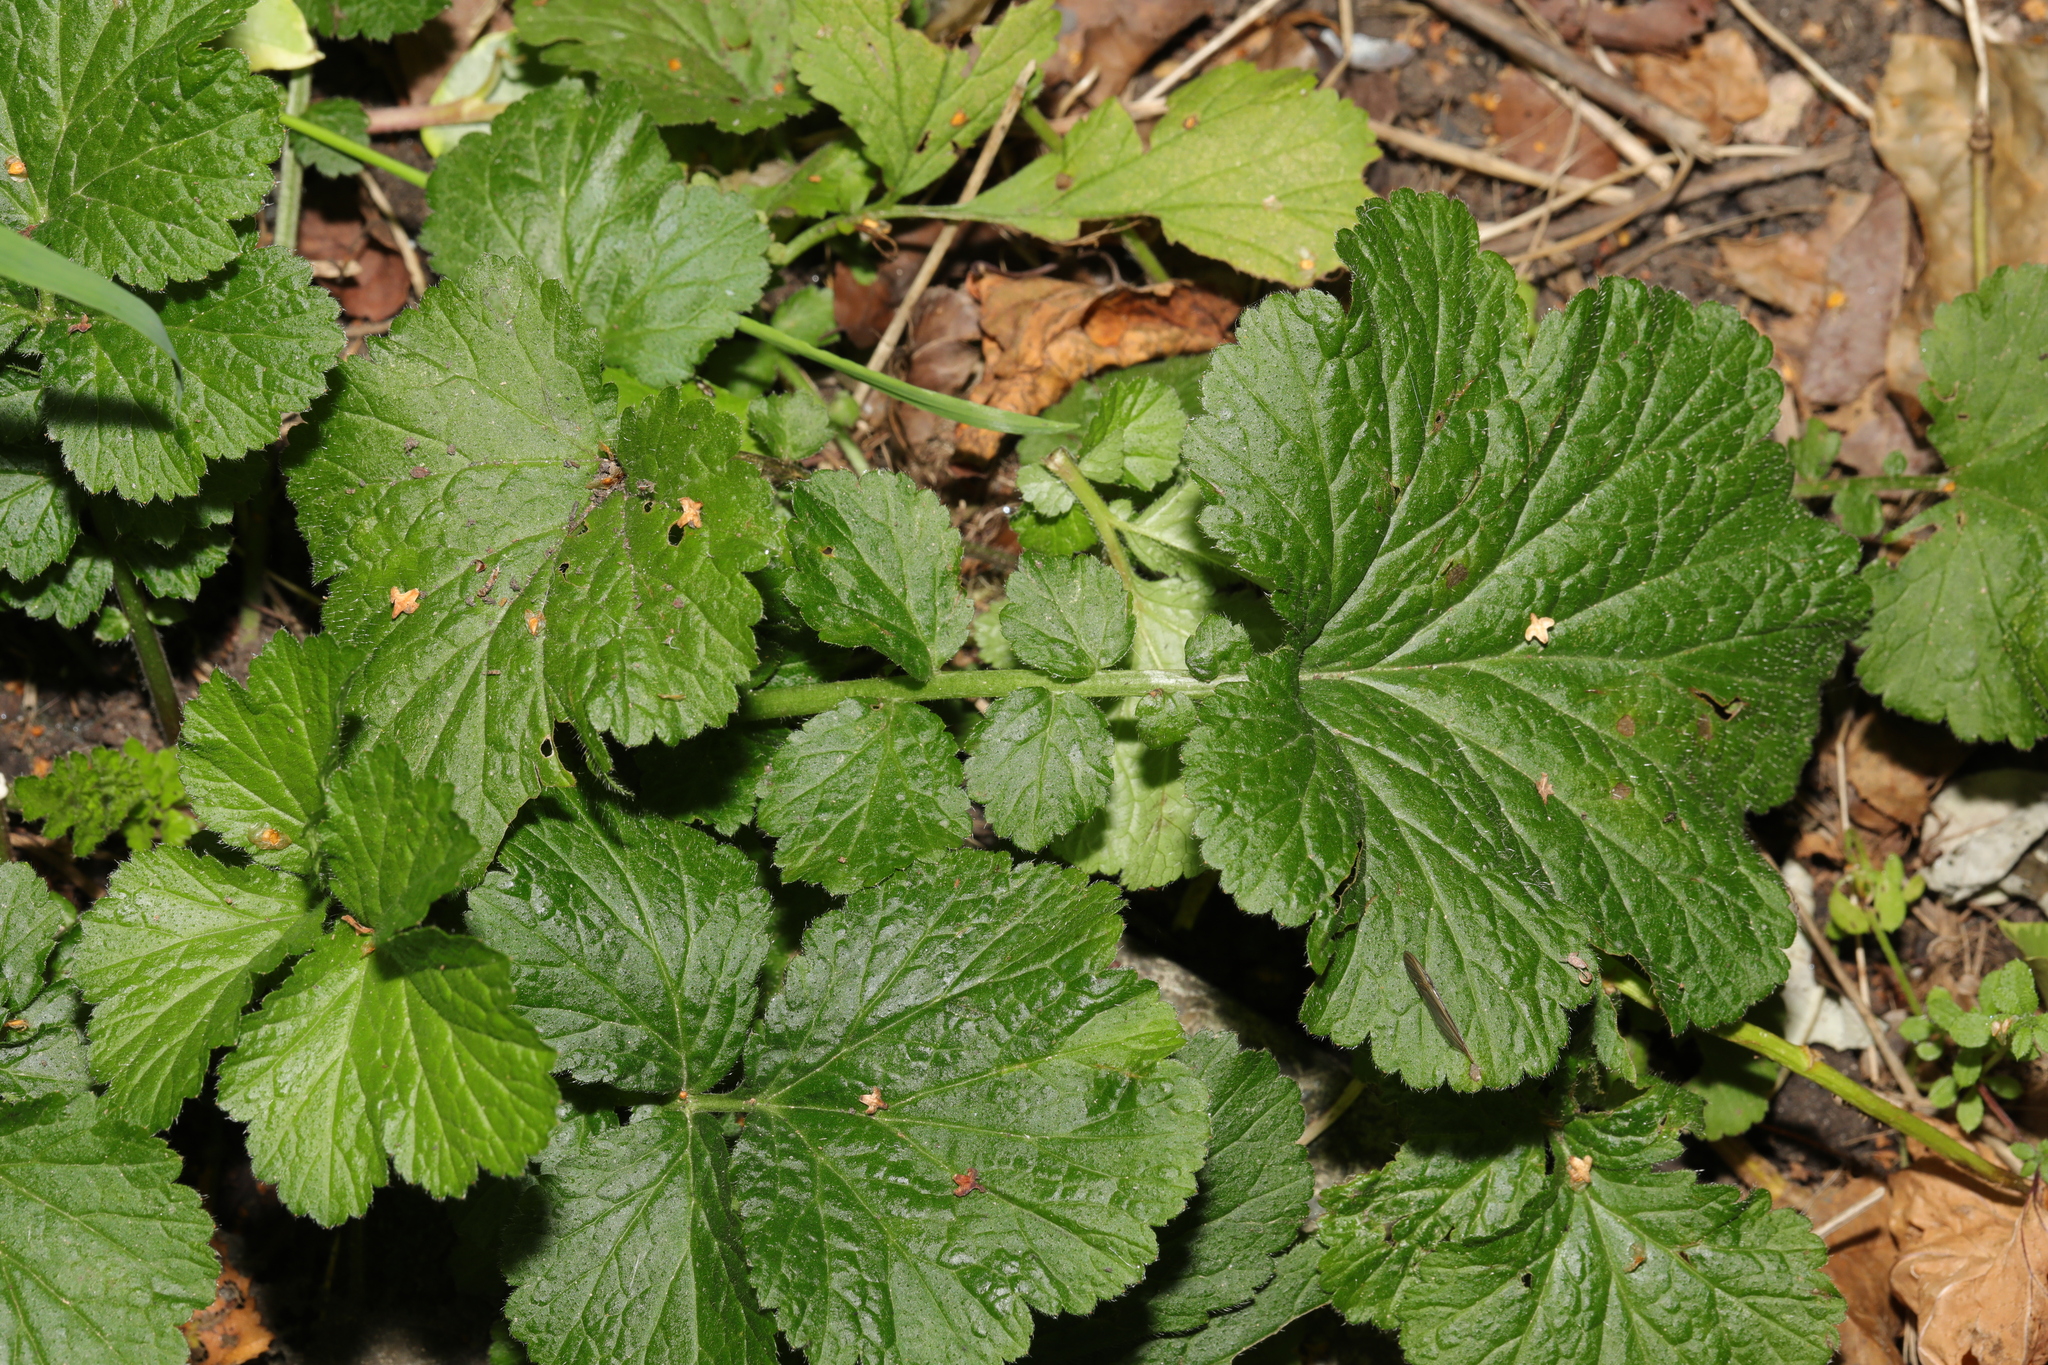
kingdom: Plantae
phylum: Tracheophyta
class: Magnoliopsida
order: Rosales
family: Rosaceae
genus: Geum
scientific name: Geum urbanum
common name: Wood avens
